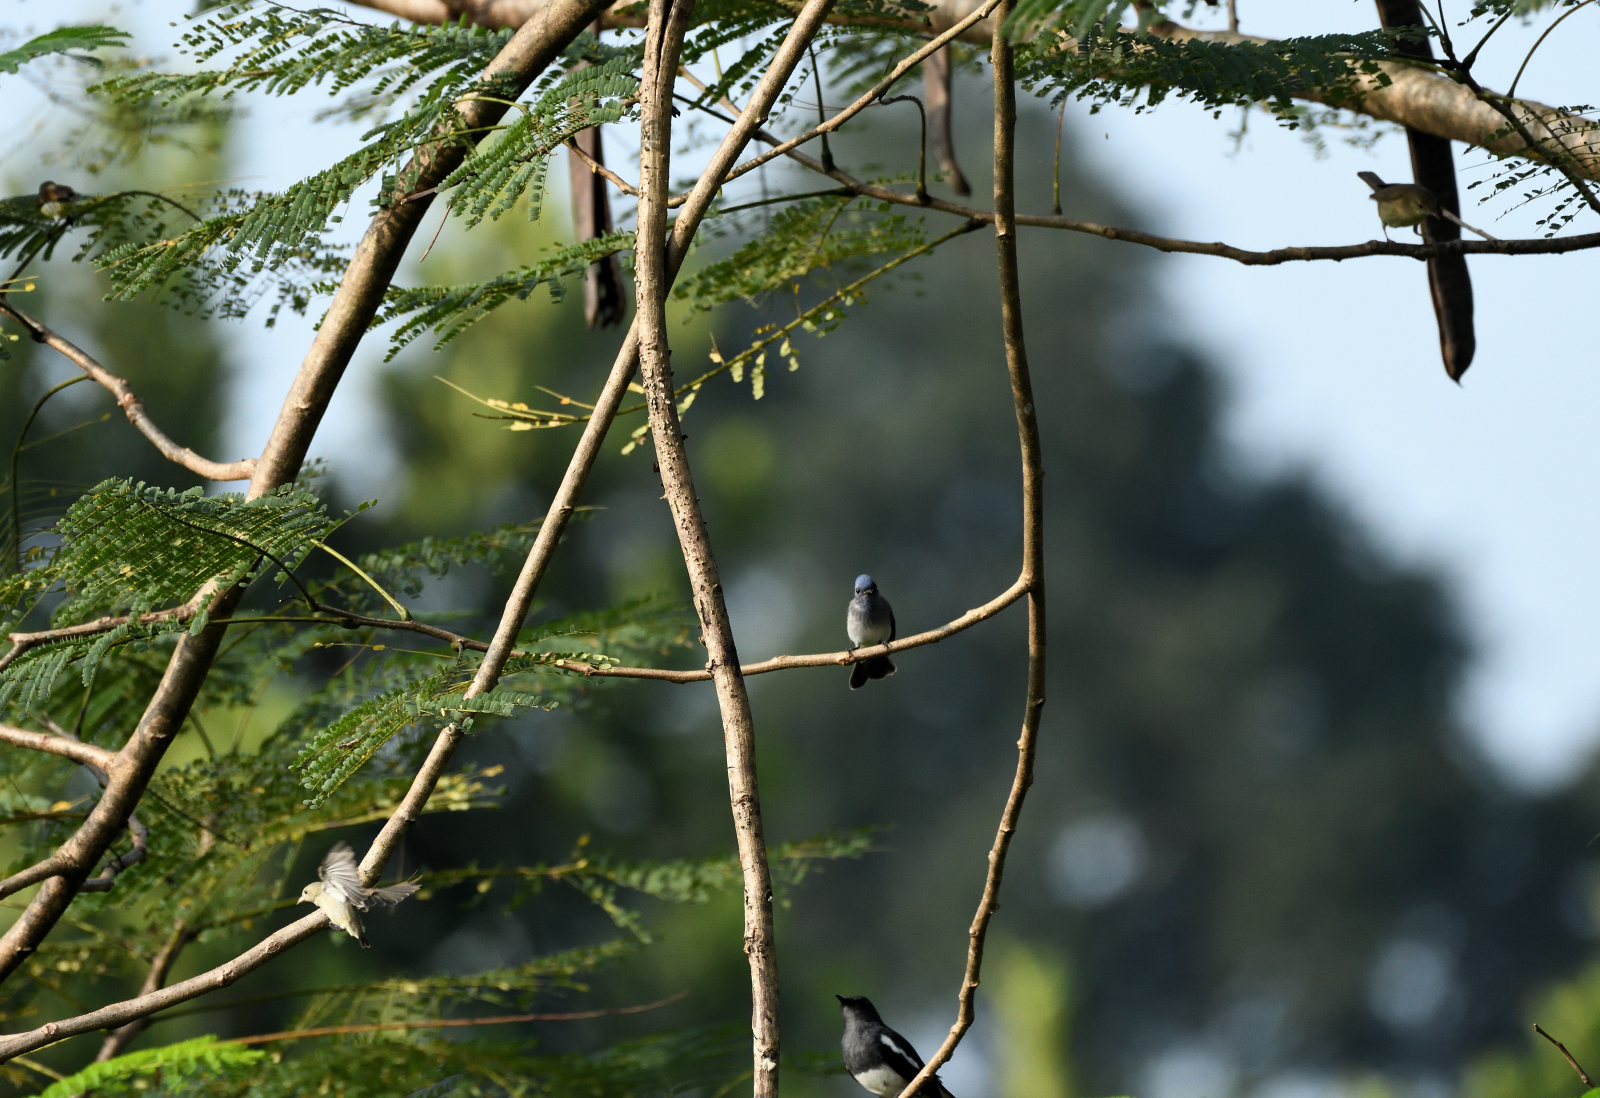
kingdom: Animalia
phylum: Chordata
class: Aves
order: Passeriformes
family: Dicaeidae
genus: Dicaeum
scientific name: Dicaeum erythrorhynchos
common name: Pale-billed flowerpecker
